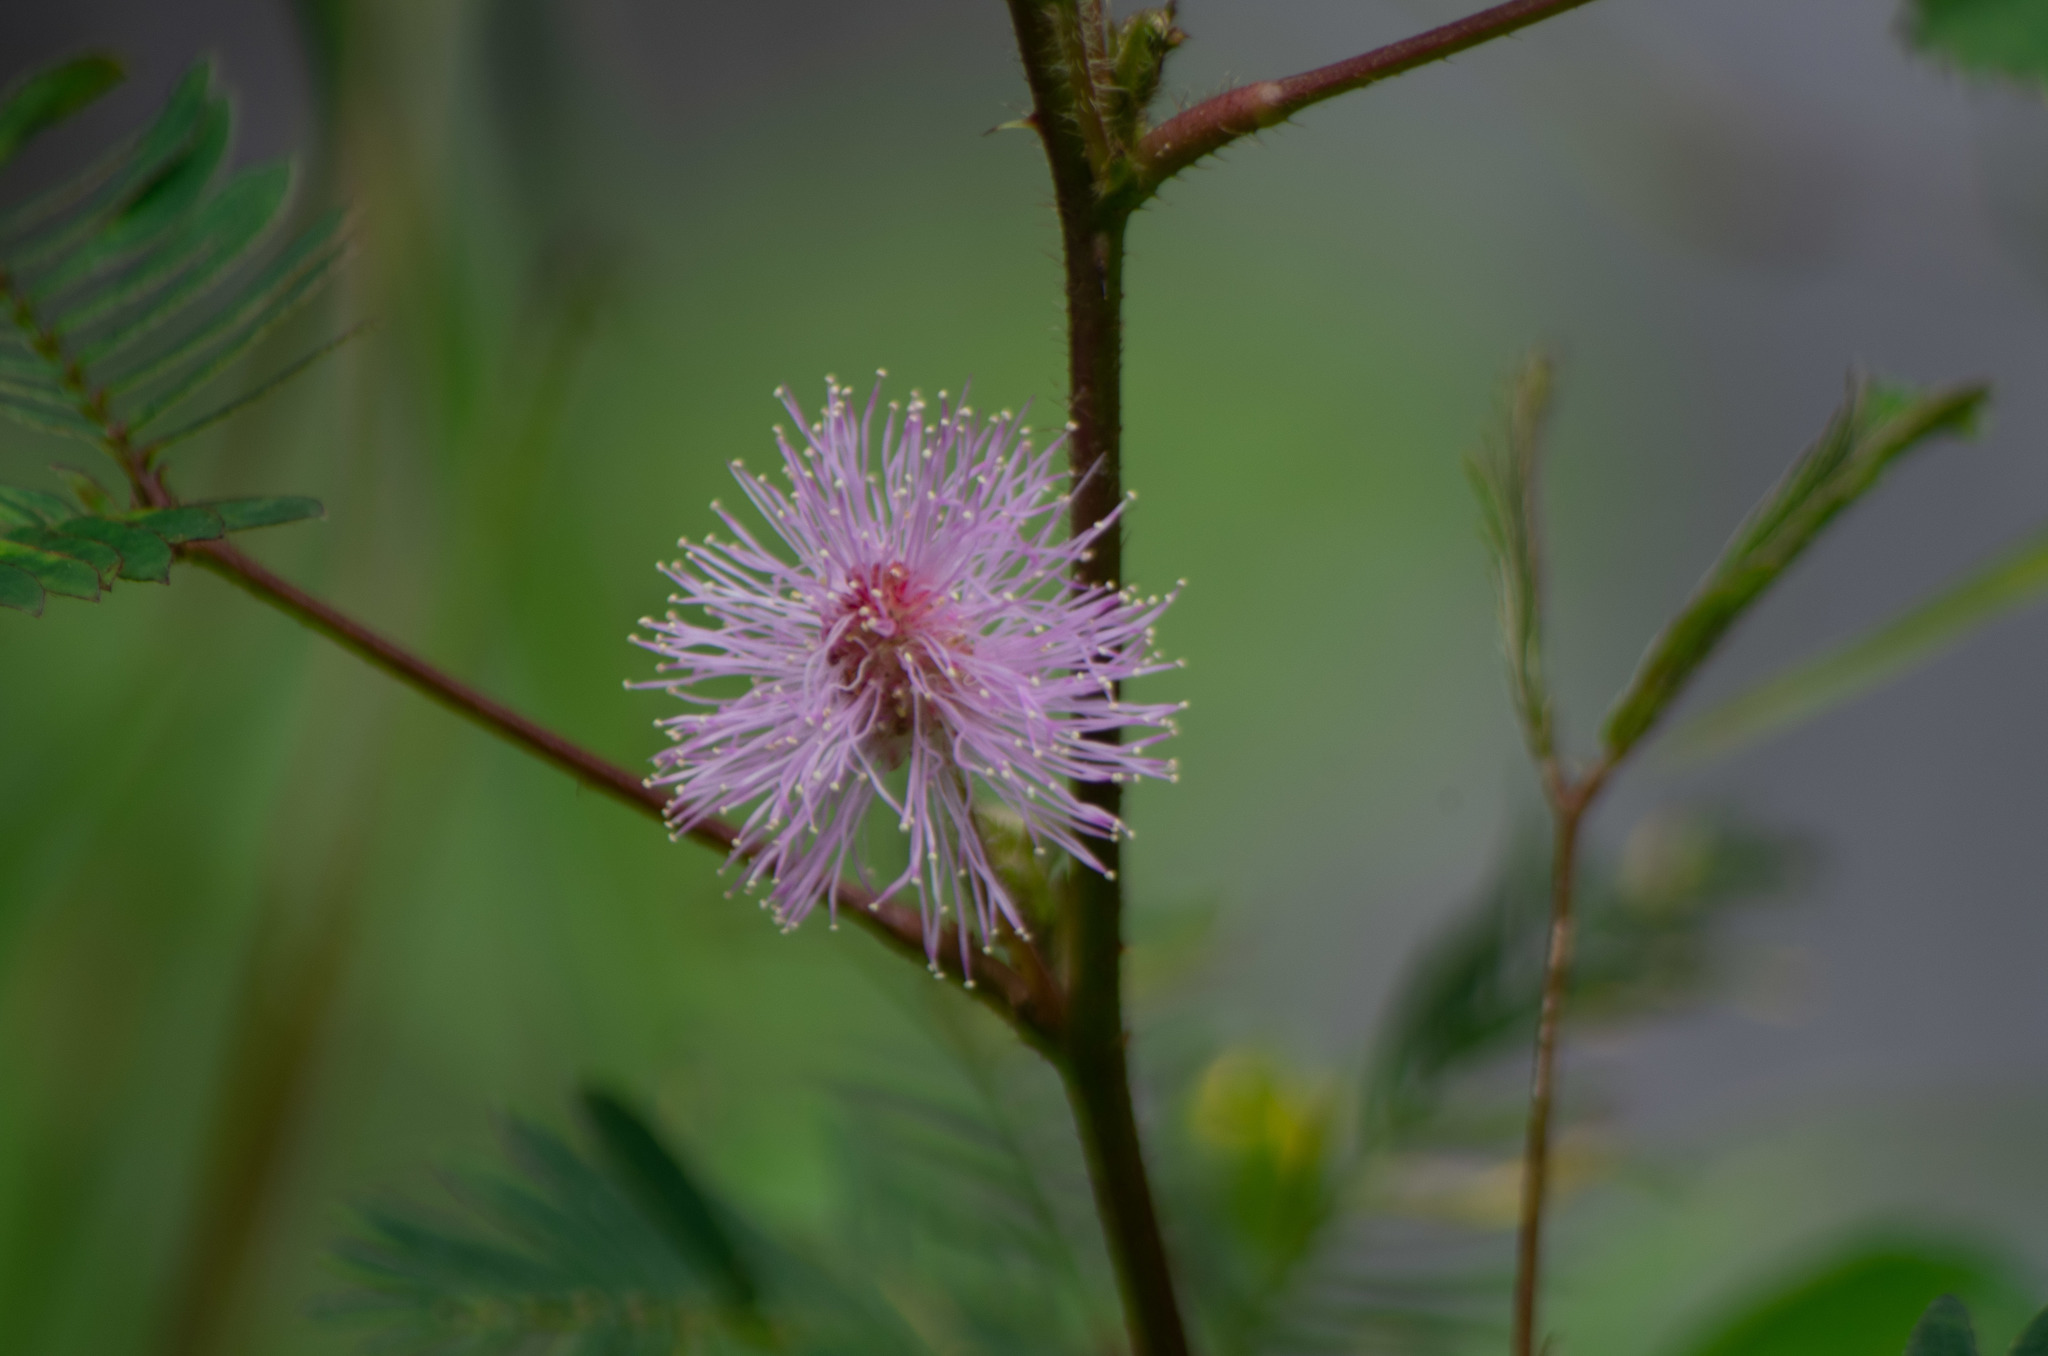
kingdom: Plantae
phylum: Tracheophyta
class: Magnoliopsida
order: Fabales
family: Fabaceae
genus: Mimosa
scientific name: Mimosa pudica
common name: Sensitive plant
